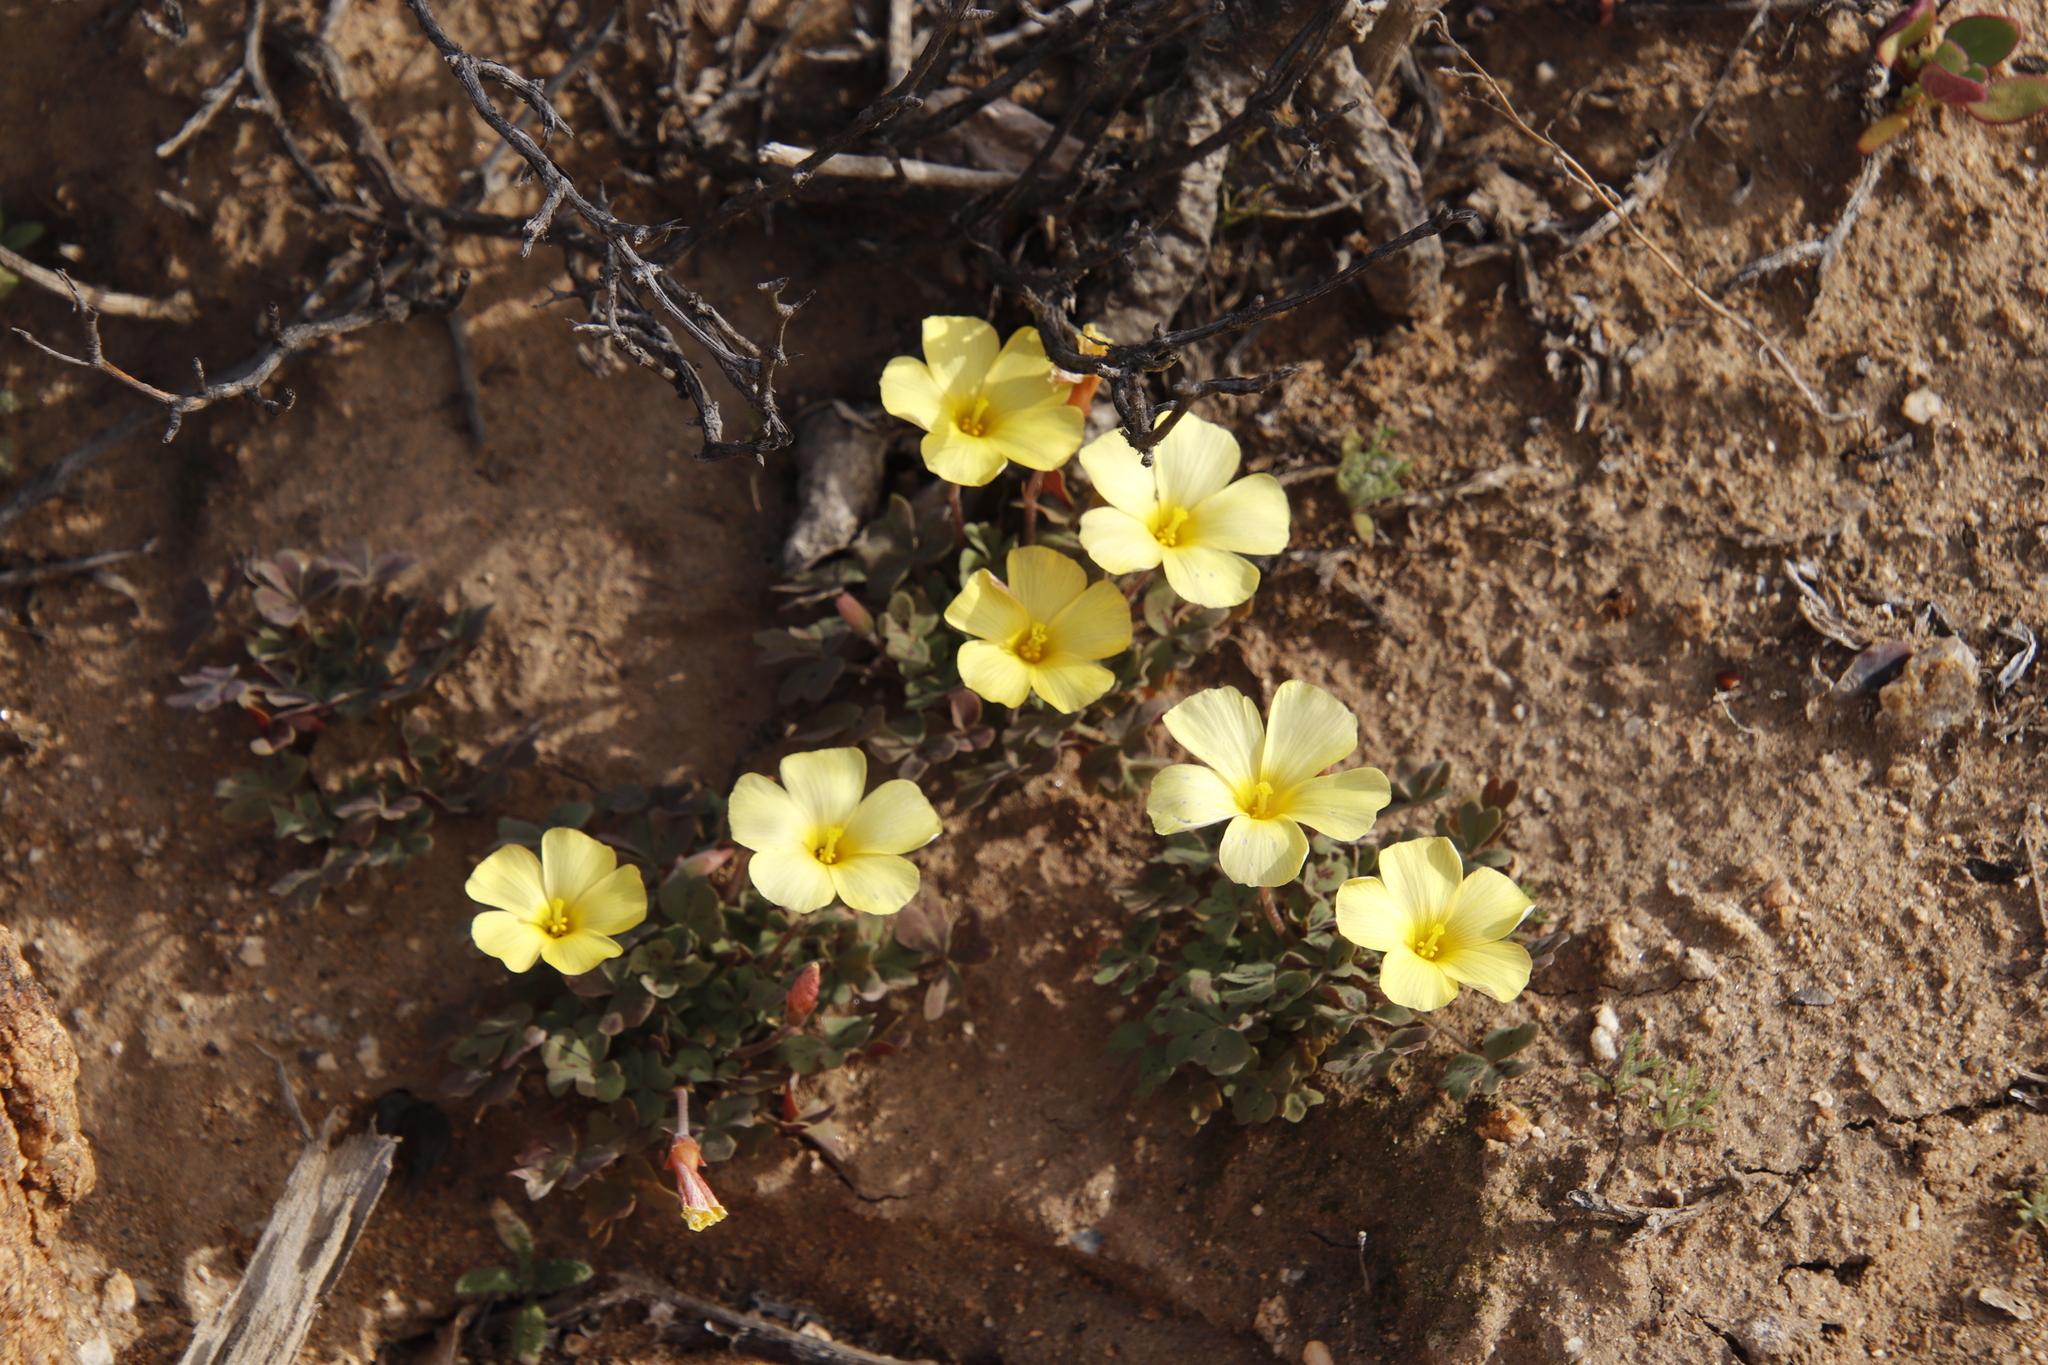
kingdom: Plantae
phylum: Tracheophyta
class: Magnoliopsida
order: Oxalidales
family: Oxalidaceae
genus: Oxalis
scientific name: Oxalis obtusa
